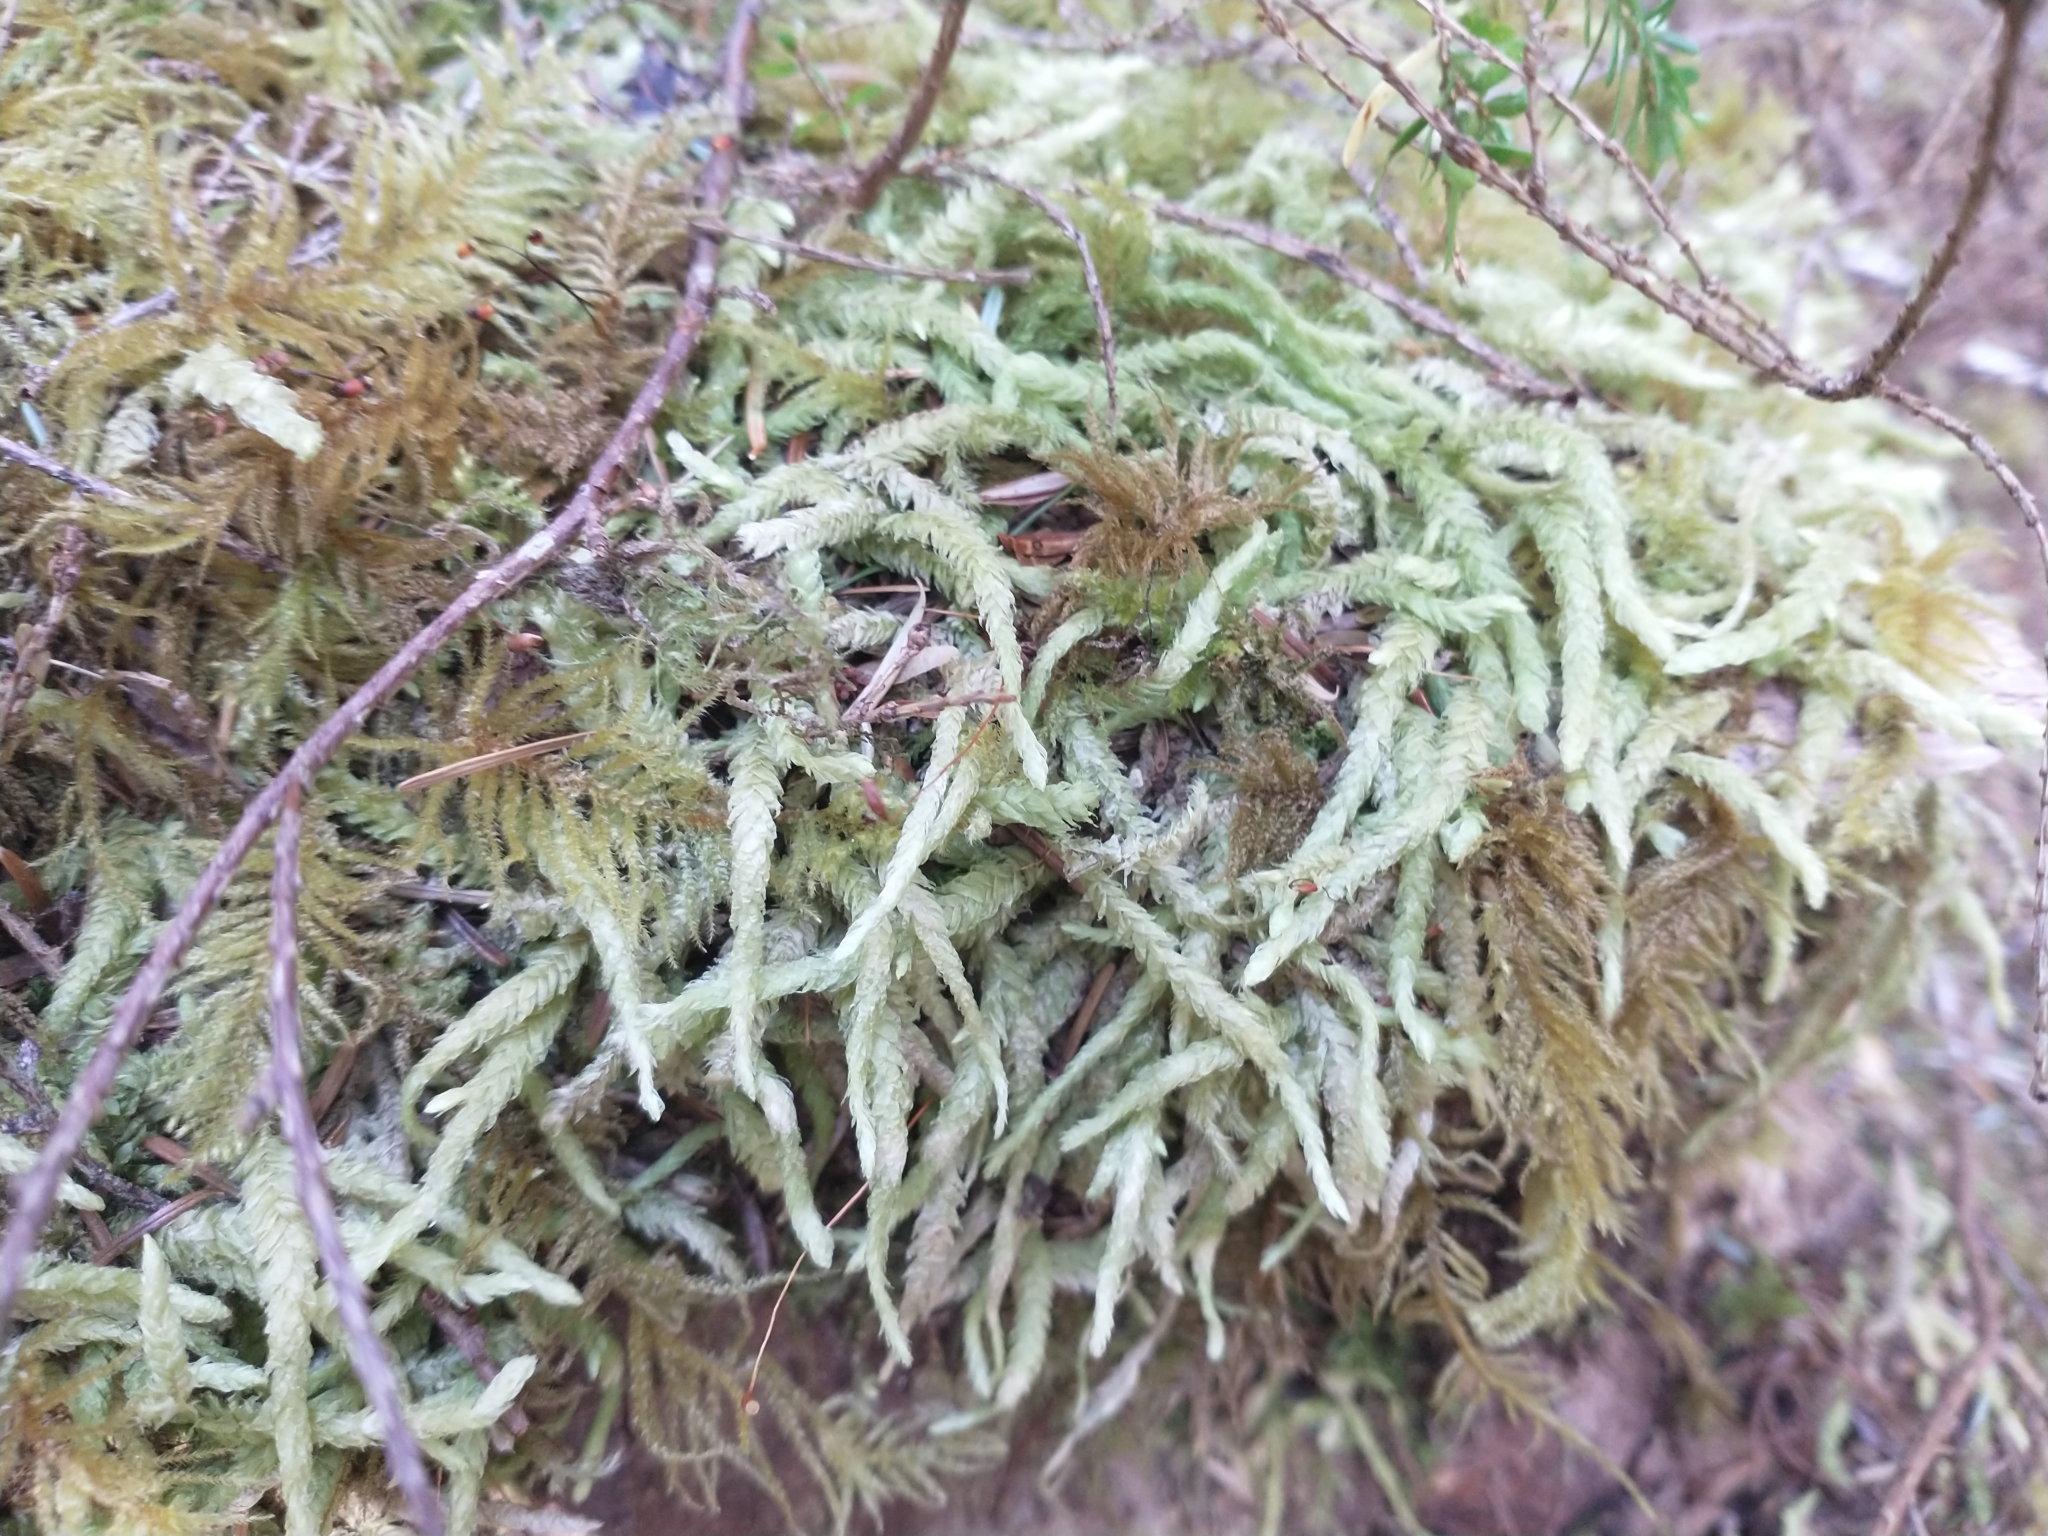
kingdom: Plantae
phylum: Bryophyta
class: Bryopsida
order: Hypnales
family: Plagiotheciaceae
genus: Plagiothecium
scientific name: Plagiothecium undulatum
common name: Waved silk-moss
